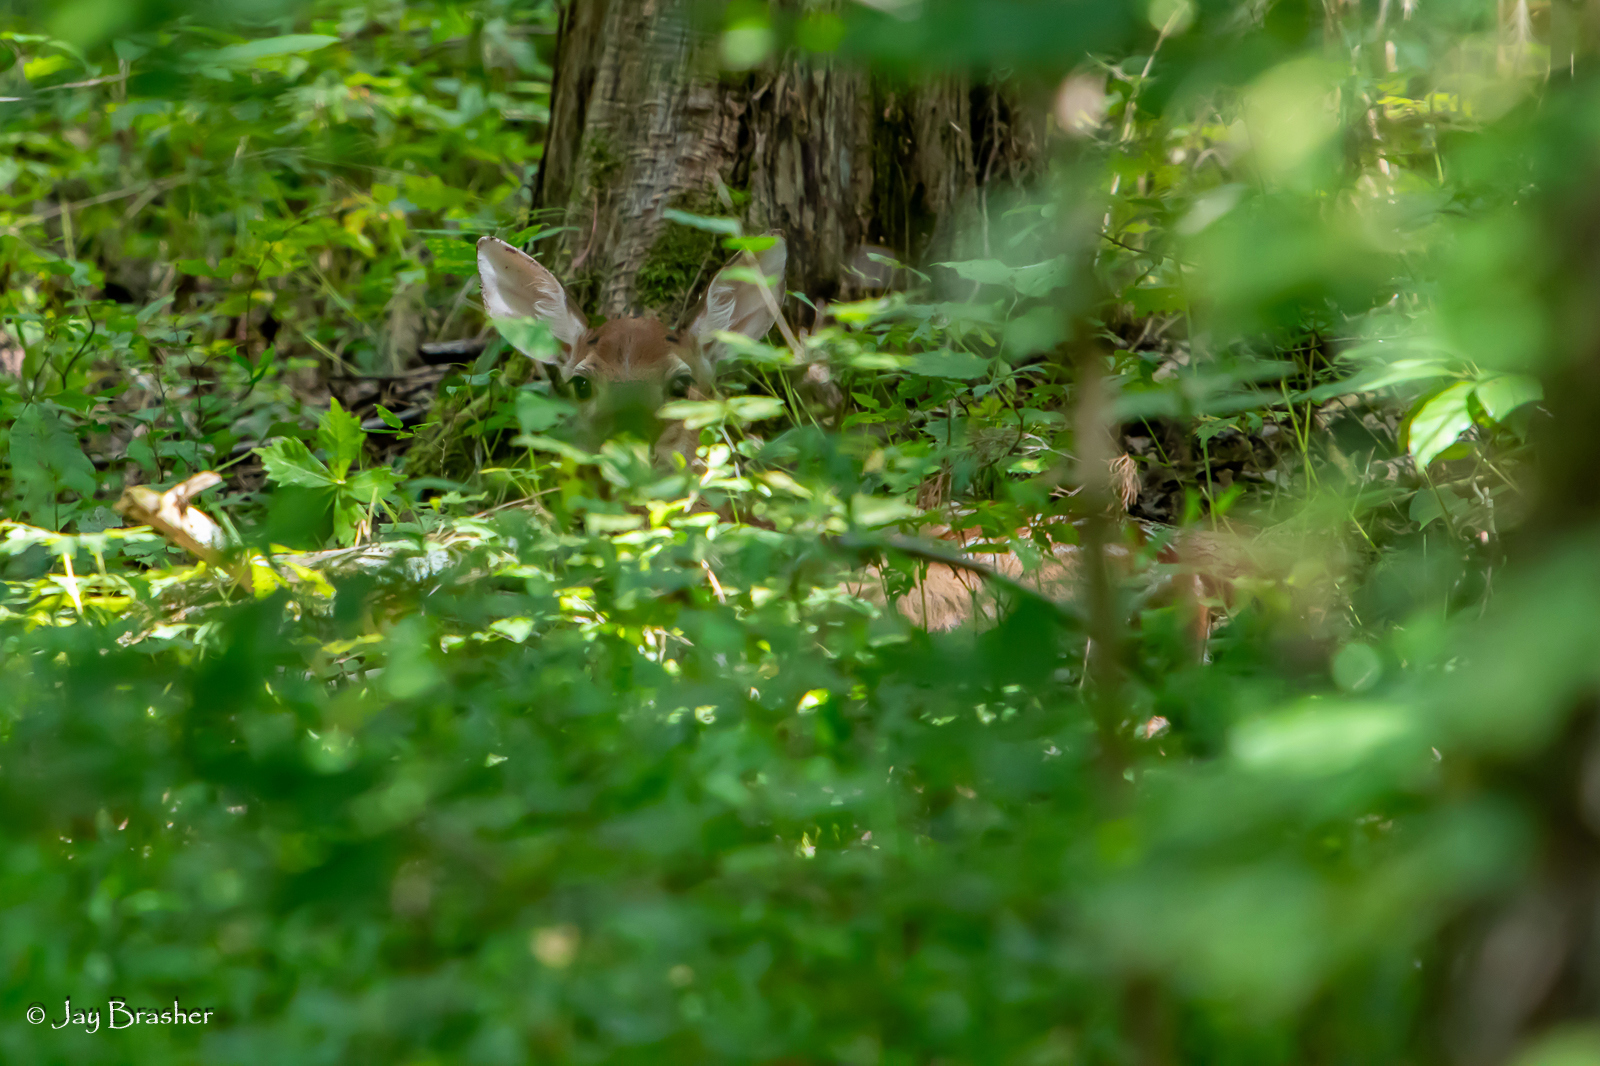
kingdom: Animalia
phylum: Chordata
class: Mammalia
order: Artiodactyla
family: Cervidae
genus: Odocoileus
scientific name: Odocoileus virginianus
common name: White-tailed deer
